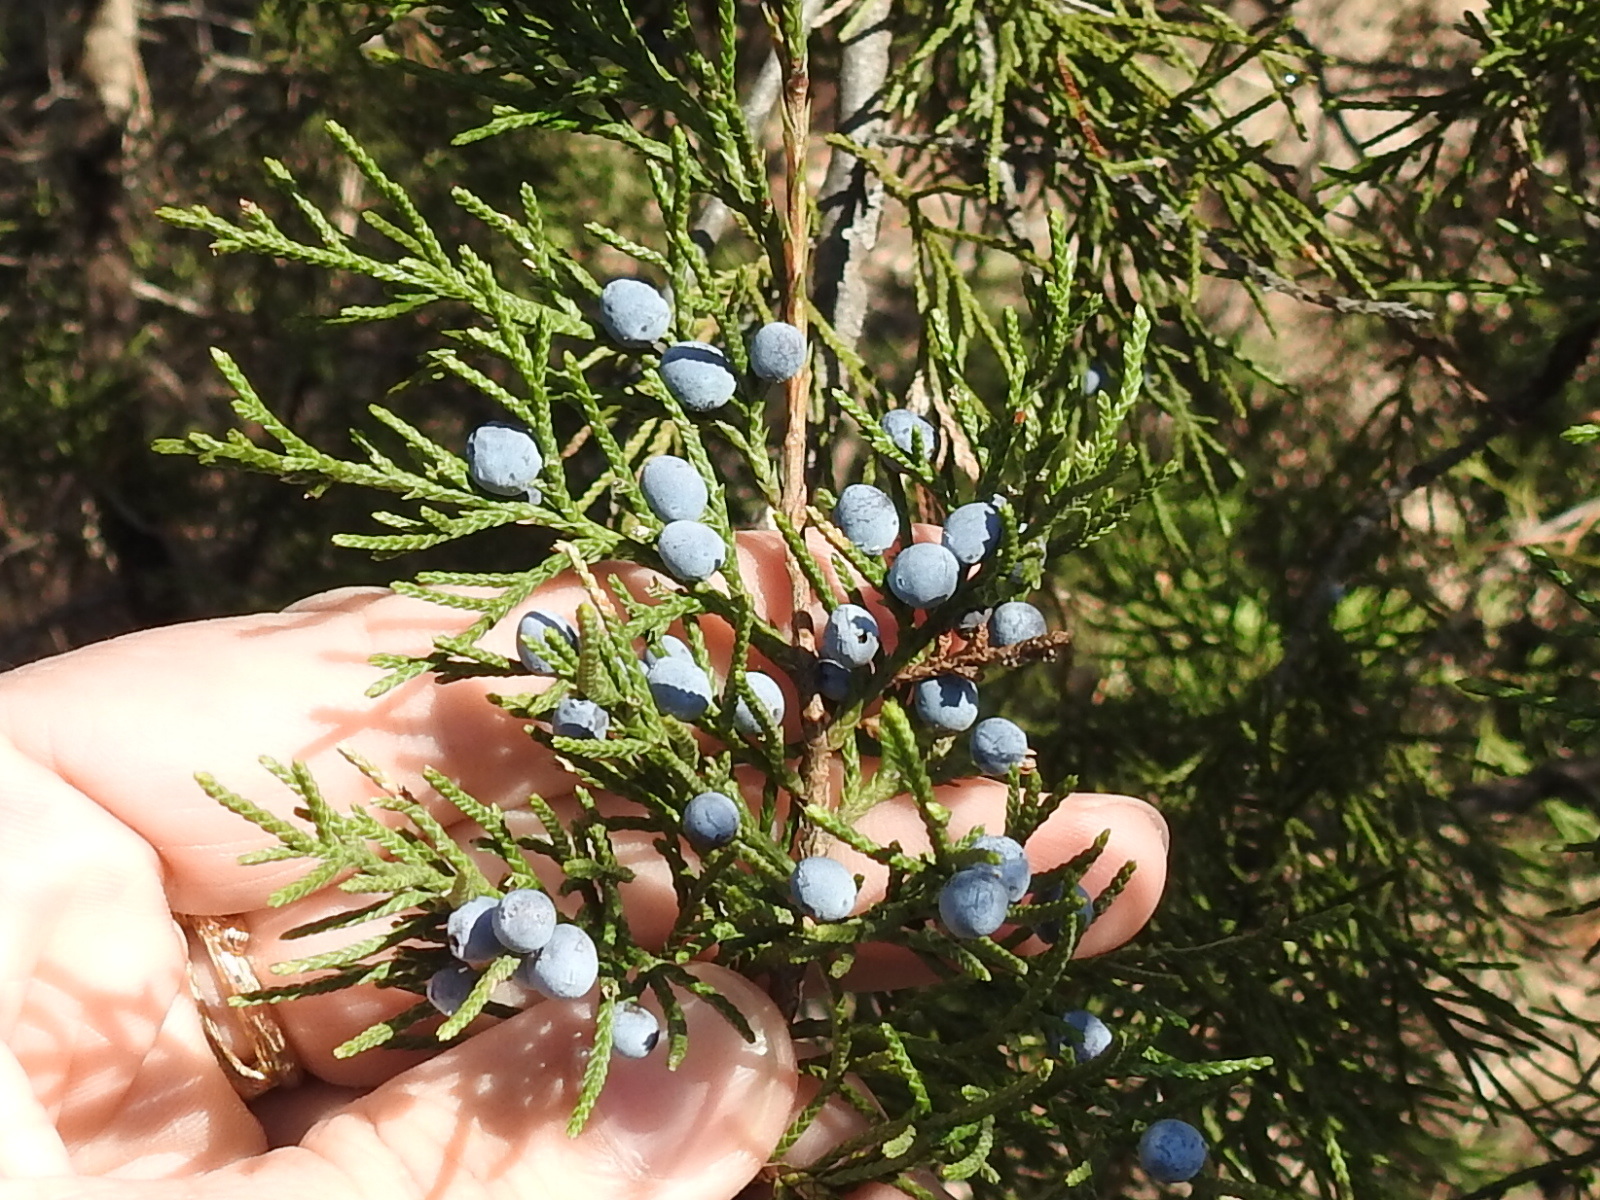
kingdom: Plantae
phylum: Tracheophyta
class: Pinopsida
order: Pinales
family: Cupressaceae
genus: Juniperus
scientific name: Juniperus virginiana
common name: Red juniper
